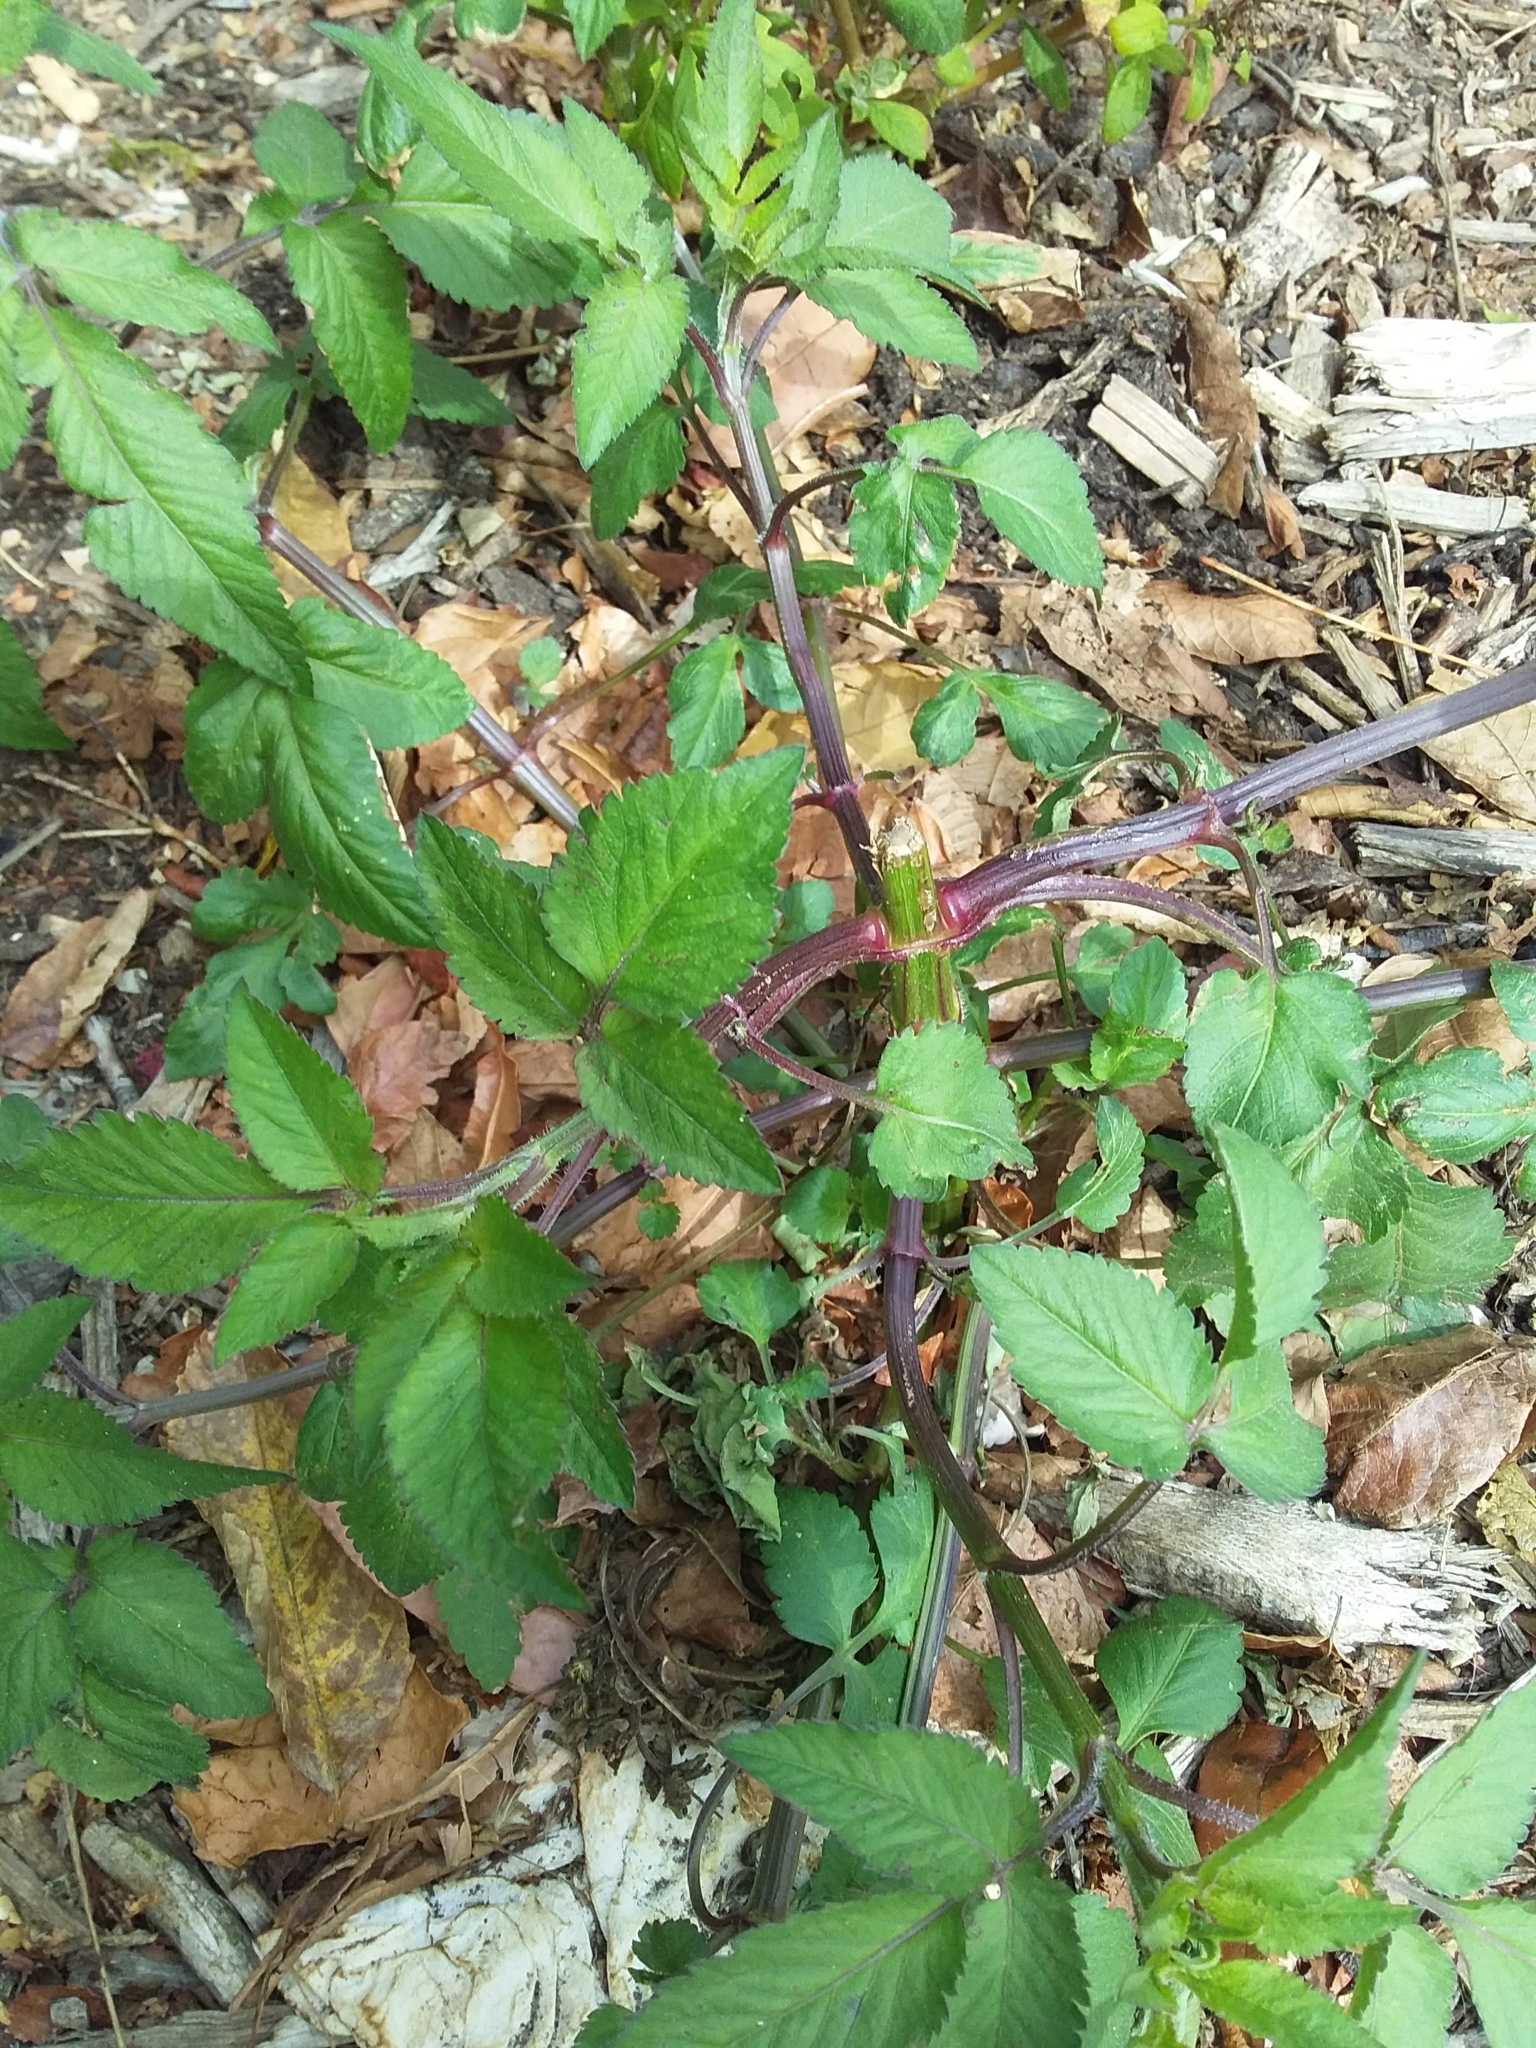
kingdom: Plantae
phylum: Tracheophyta
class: Magnoliopsida
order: Asterales
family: Asteraceae
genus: Bidens
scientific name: Bidens pilosa
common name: Black-jack
